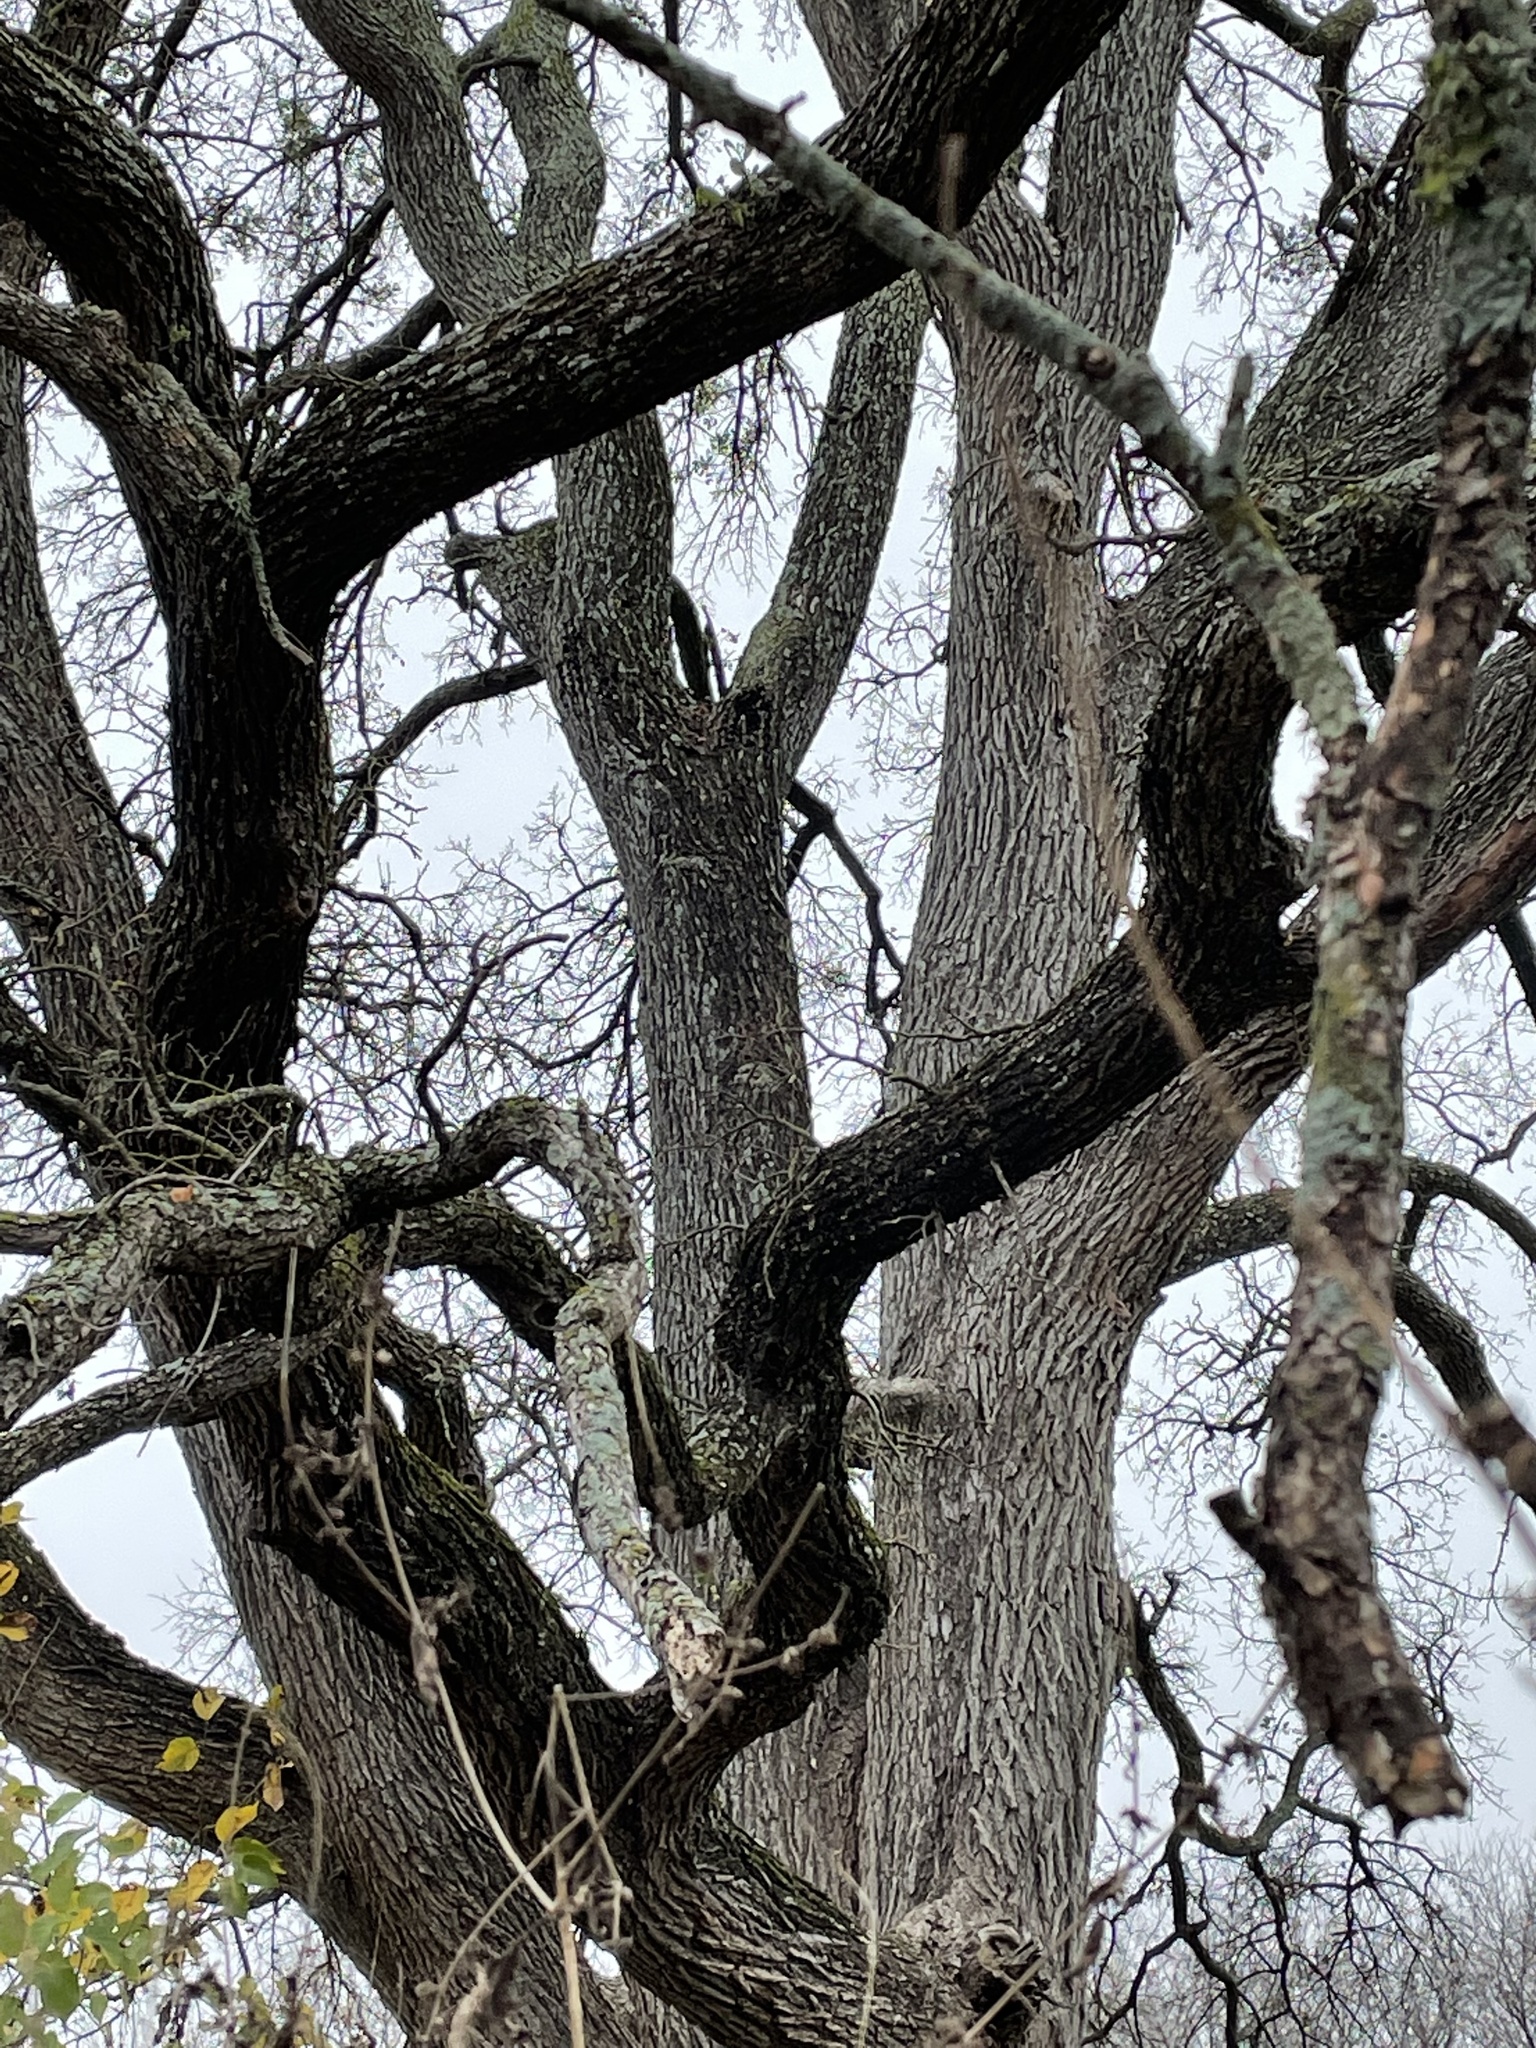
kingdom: Plantae
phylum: Tracheophyta
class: Magnoliopsida
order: Rosales
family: Ulmaceae
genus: Ulmus
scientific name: Ulmus crassifolia
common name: Basket elm
